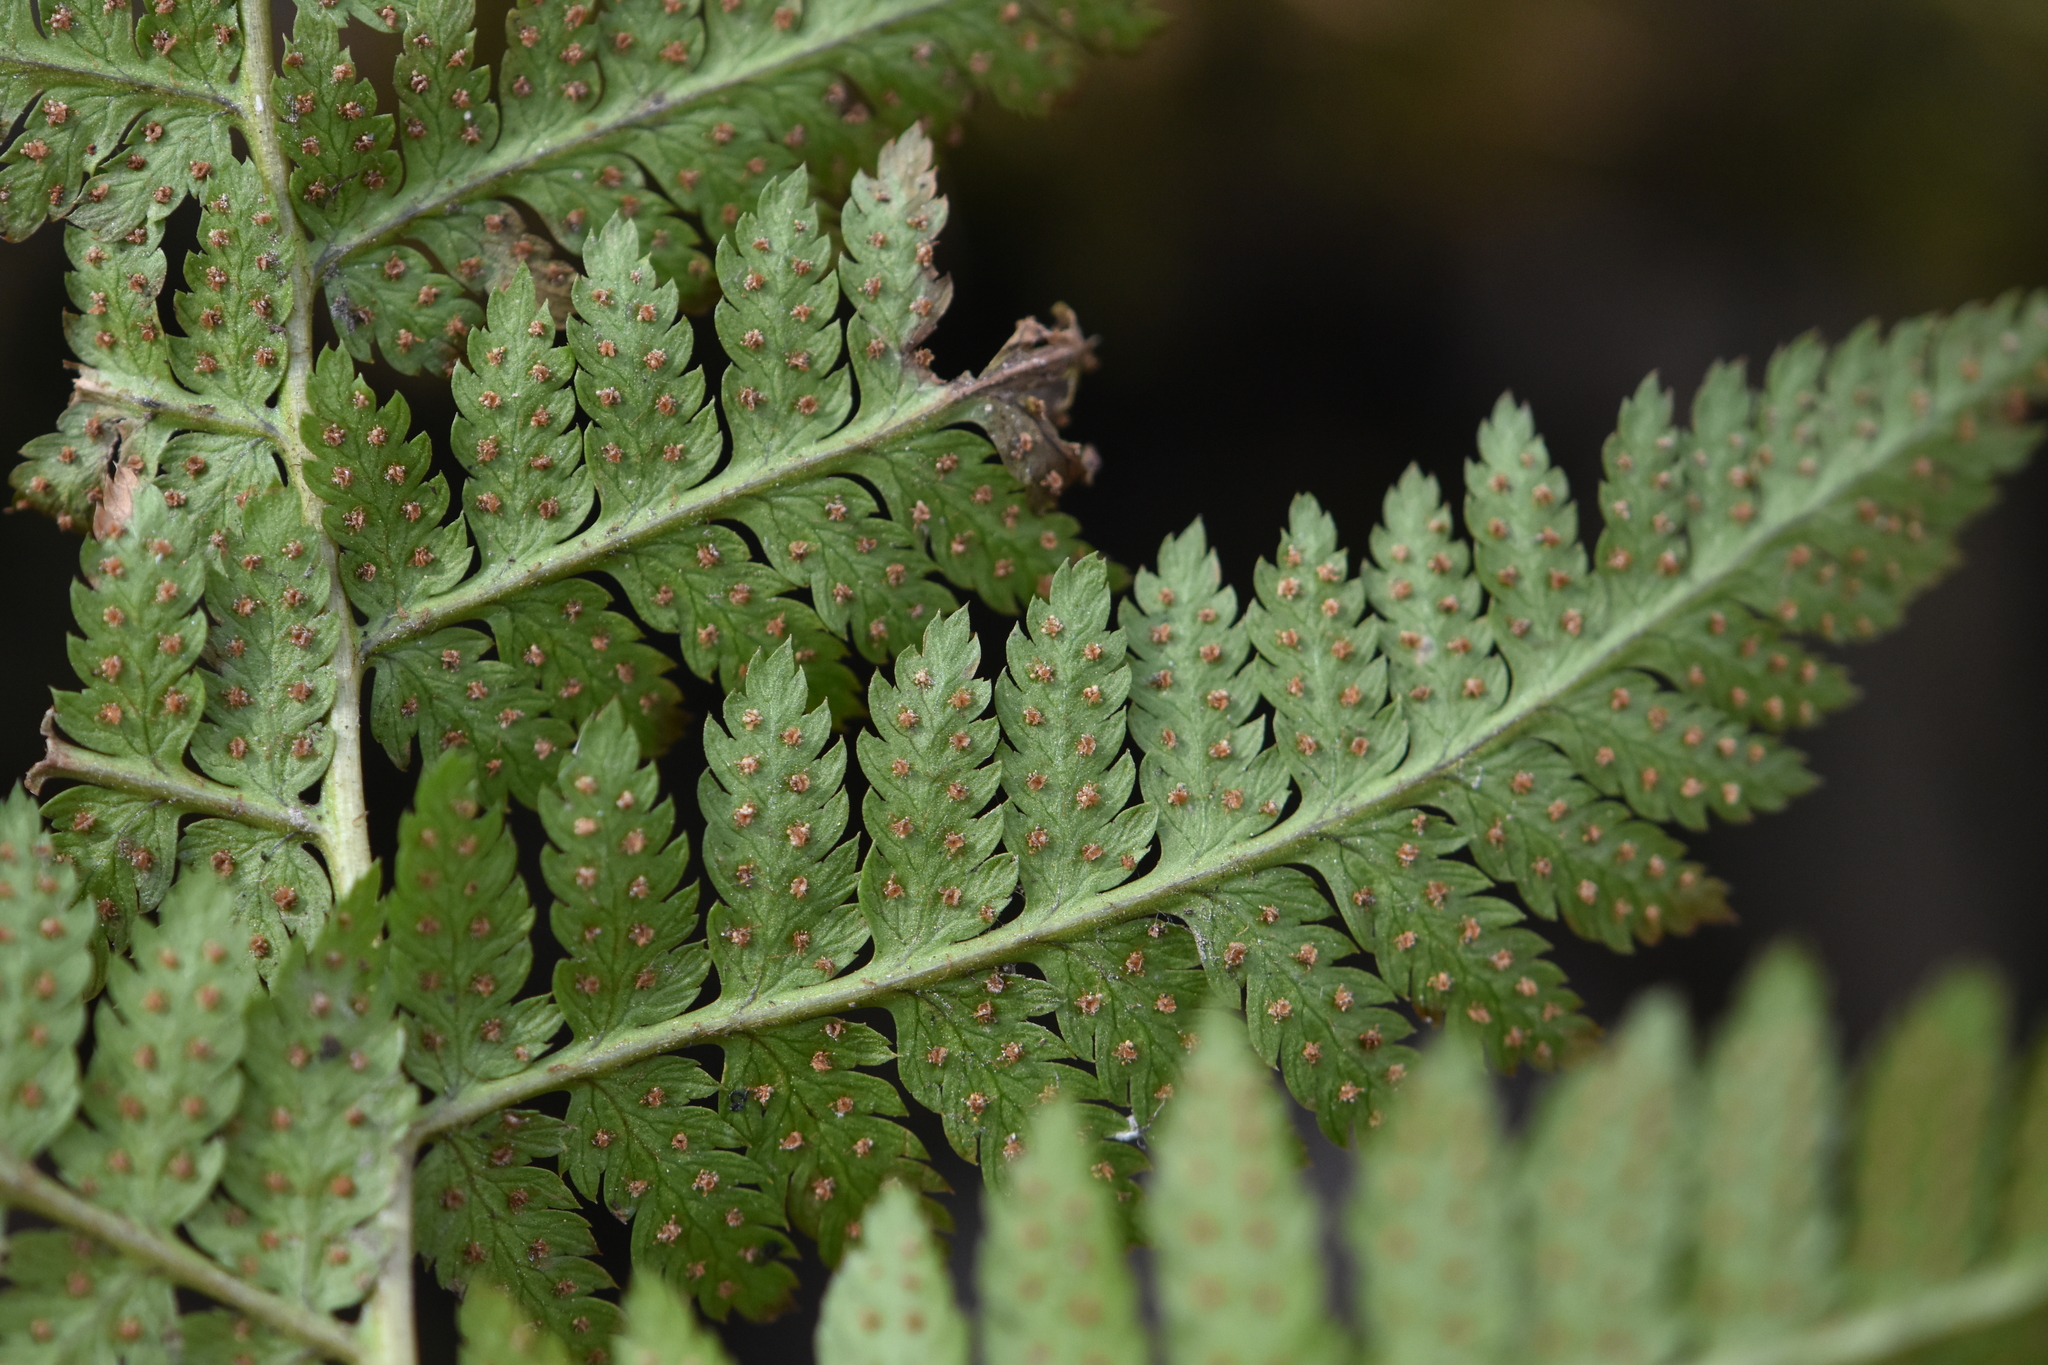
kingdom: Plantae
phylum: Tracheophyta
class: Polypodiopsida
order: Polypodiales
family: Dryopteridaceae
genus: Dryopteris
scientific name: Dryopteris carthusiana
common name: Narrow buckler-fern
